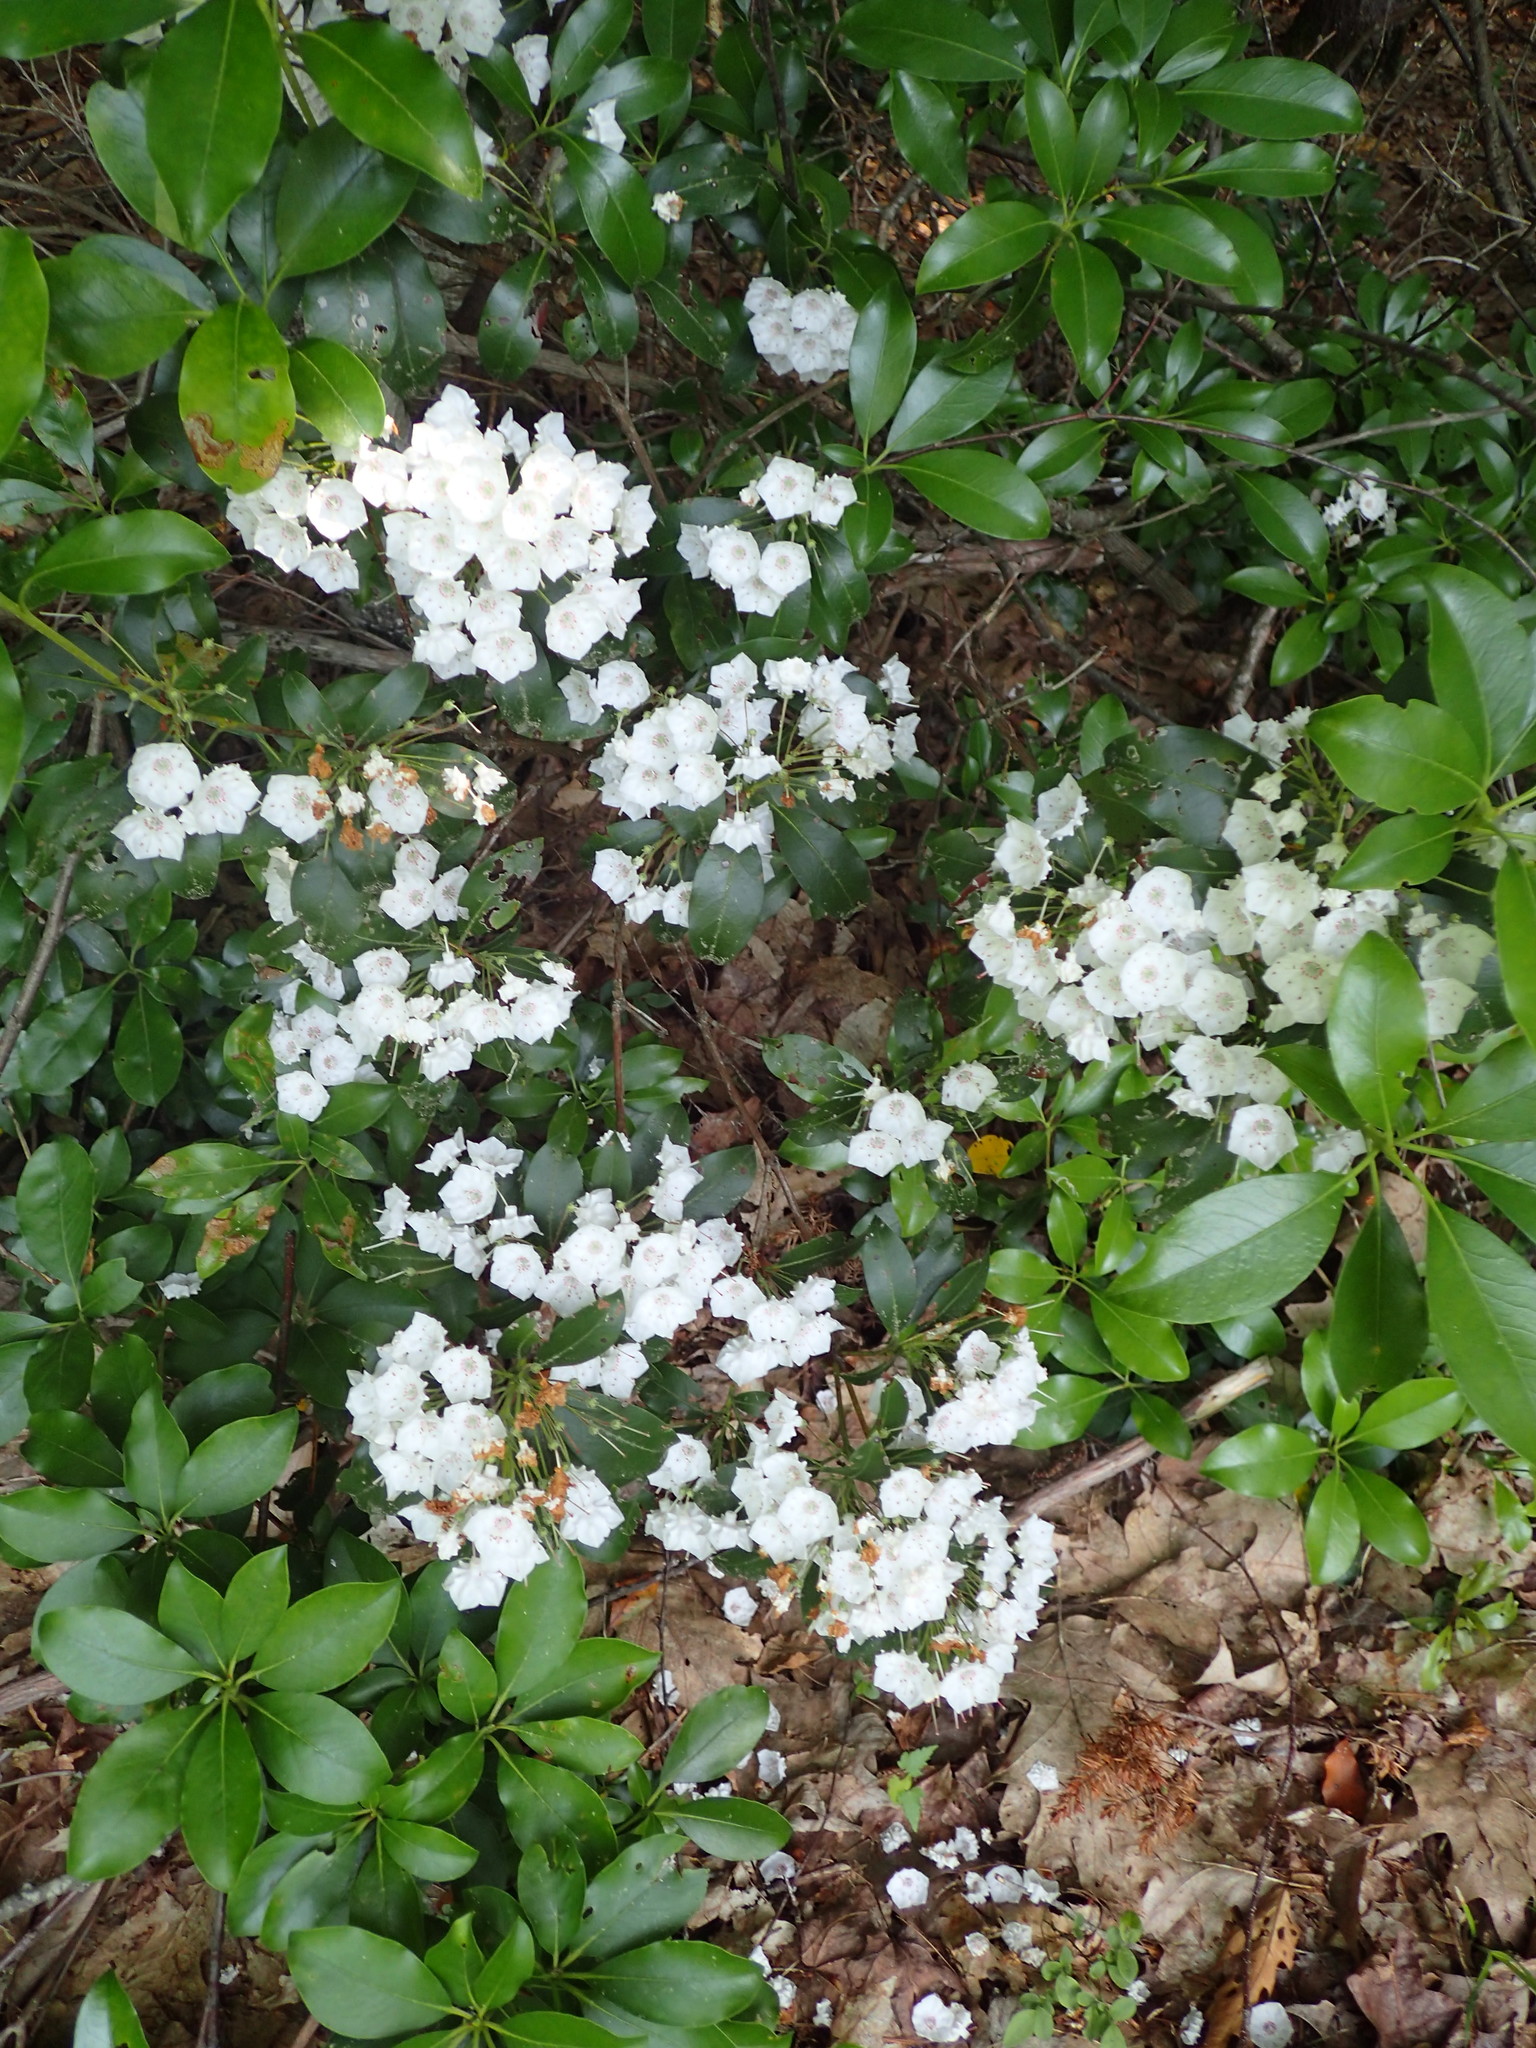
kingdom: Plantae
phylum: Tracheophyta
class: Magnoliopsida
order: Ericales
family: Ericaceae
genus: Kalmia
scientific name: Kalmia latifolia
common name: Mountain-laurel
